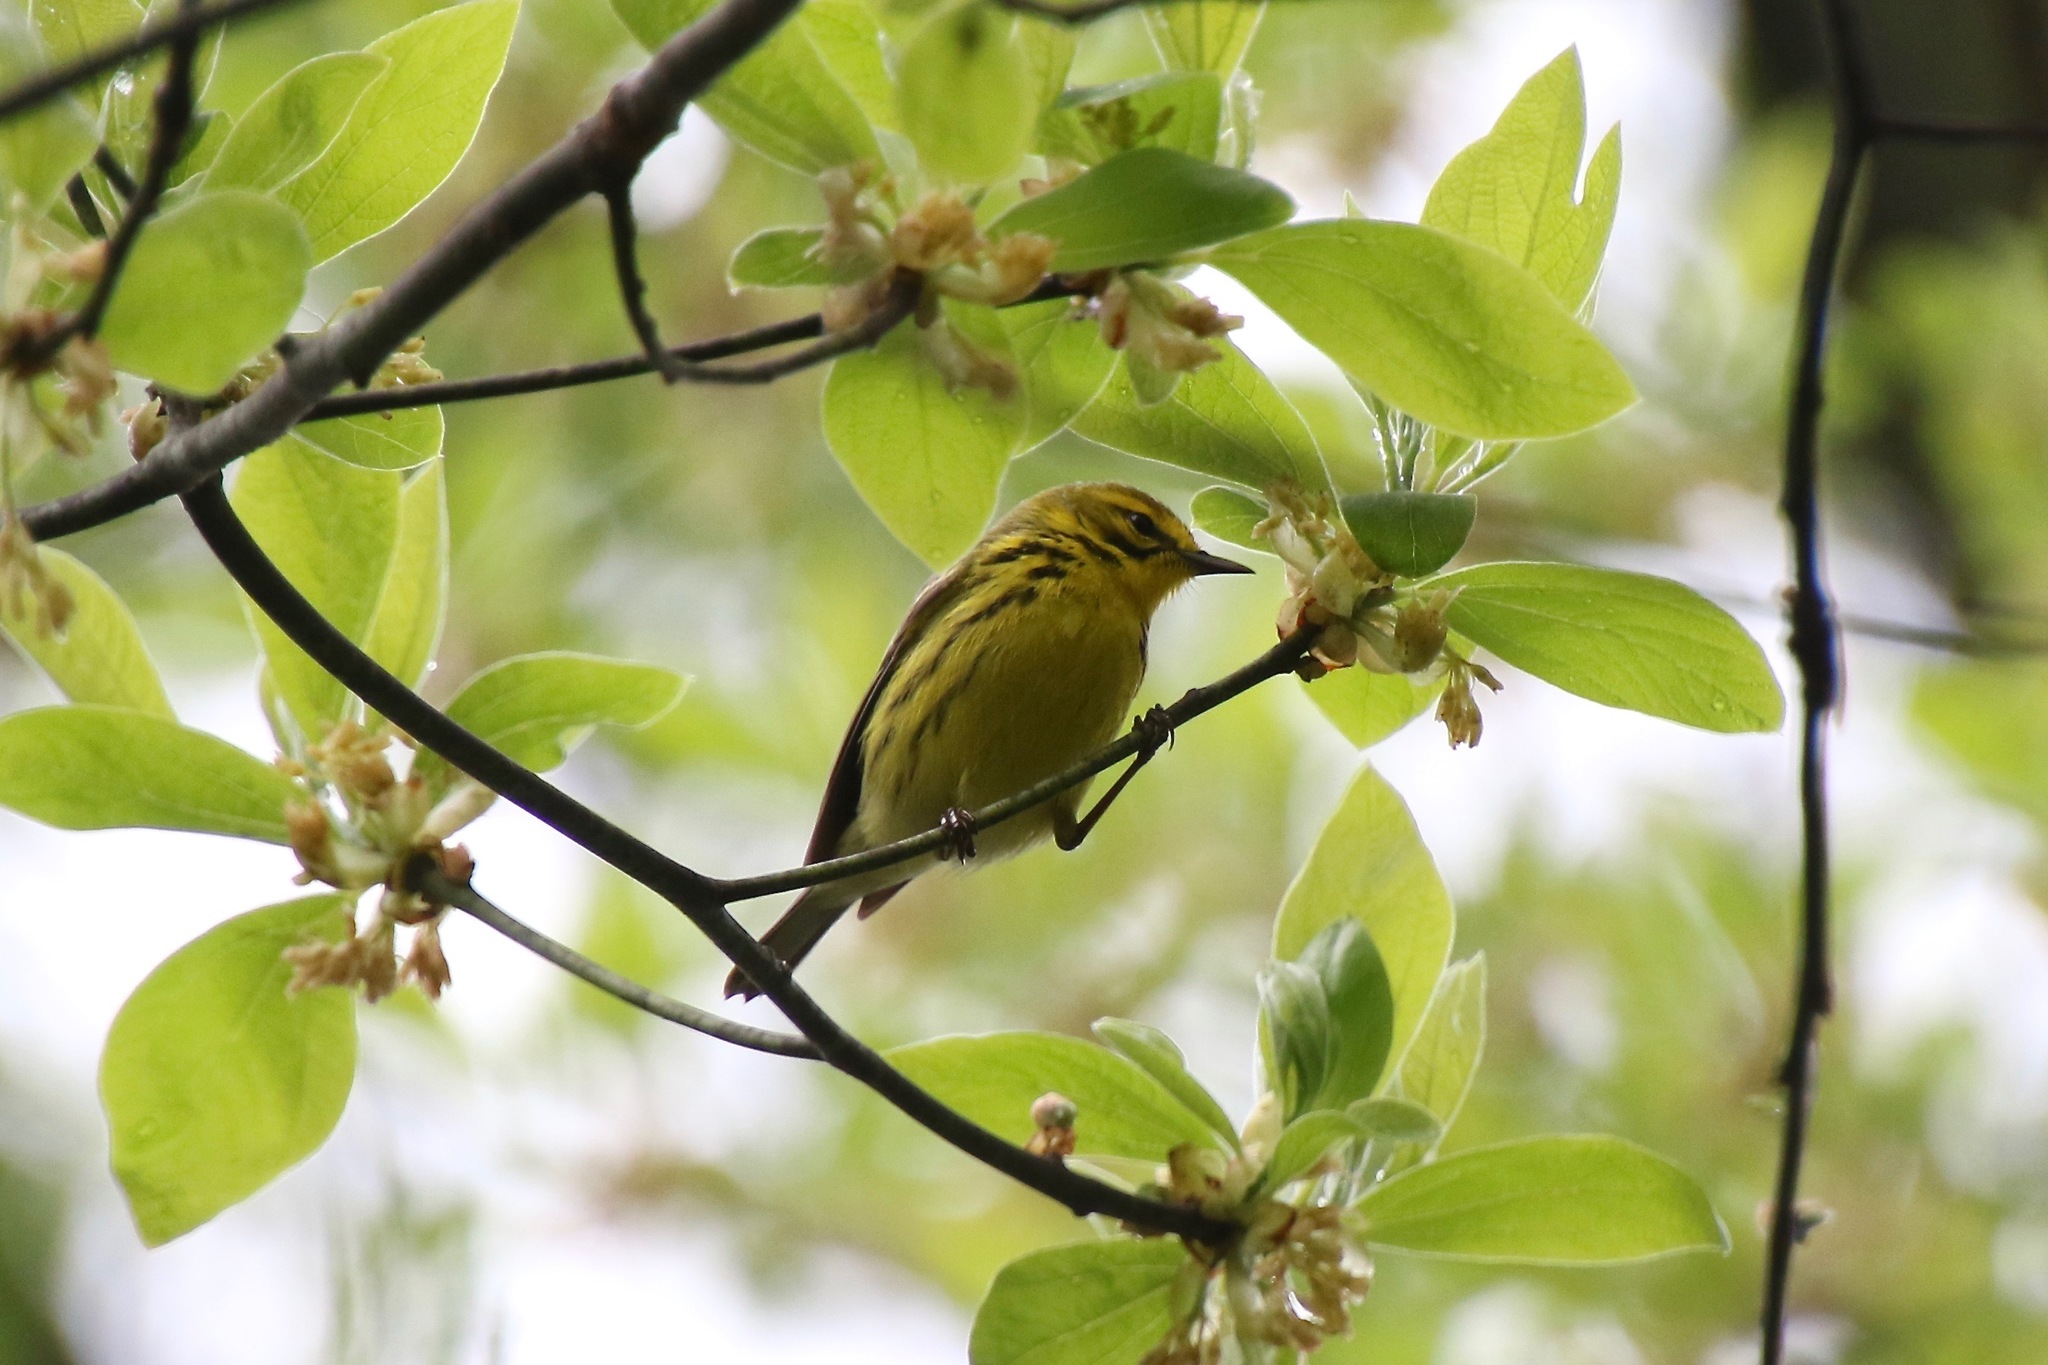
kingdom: Animalia
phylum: Chordata
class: Aves
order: Passeriformes
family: Parulidae
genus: Setophaga
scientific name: Setophaga discolor
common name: Prairie warbler
